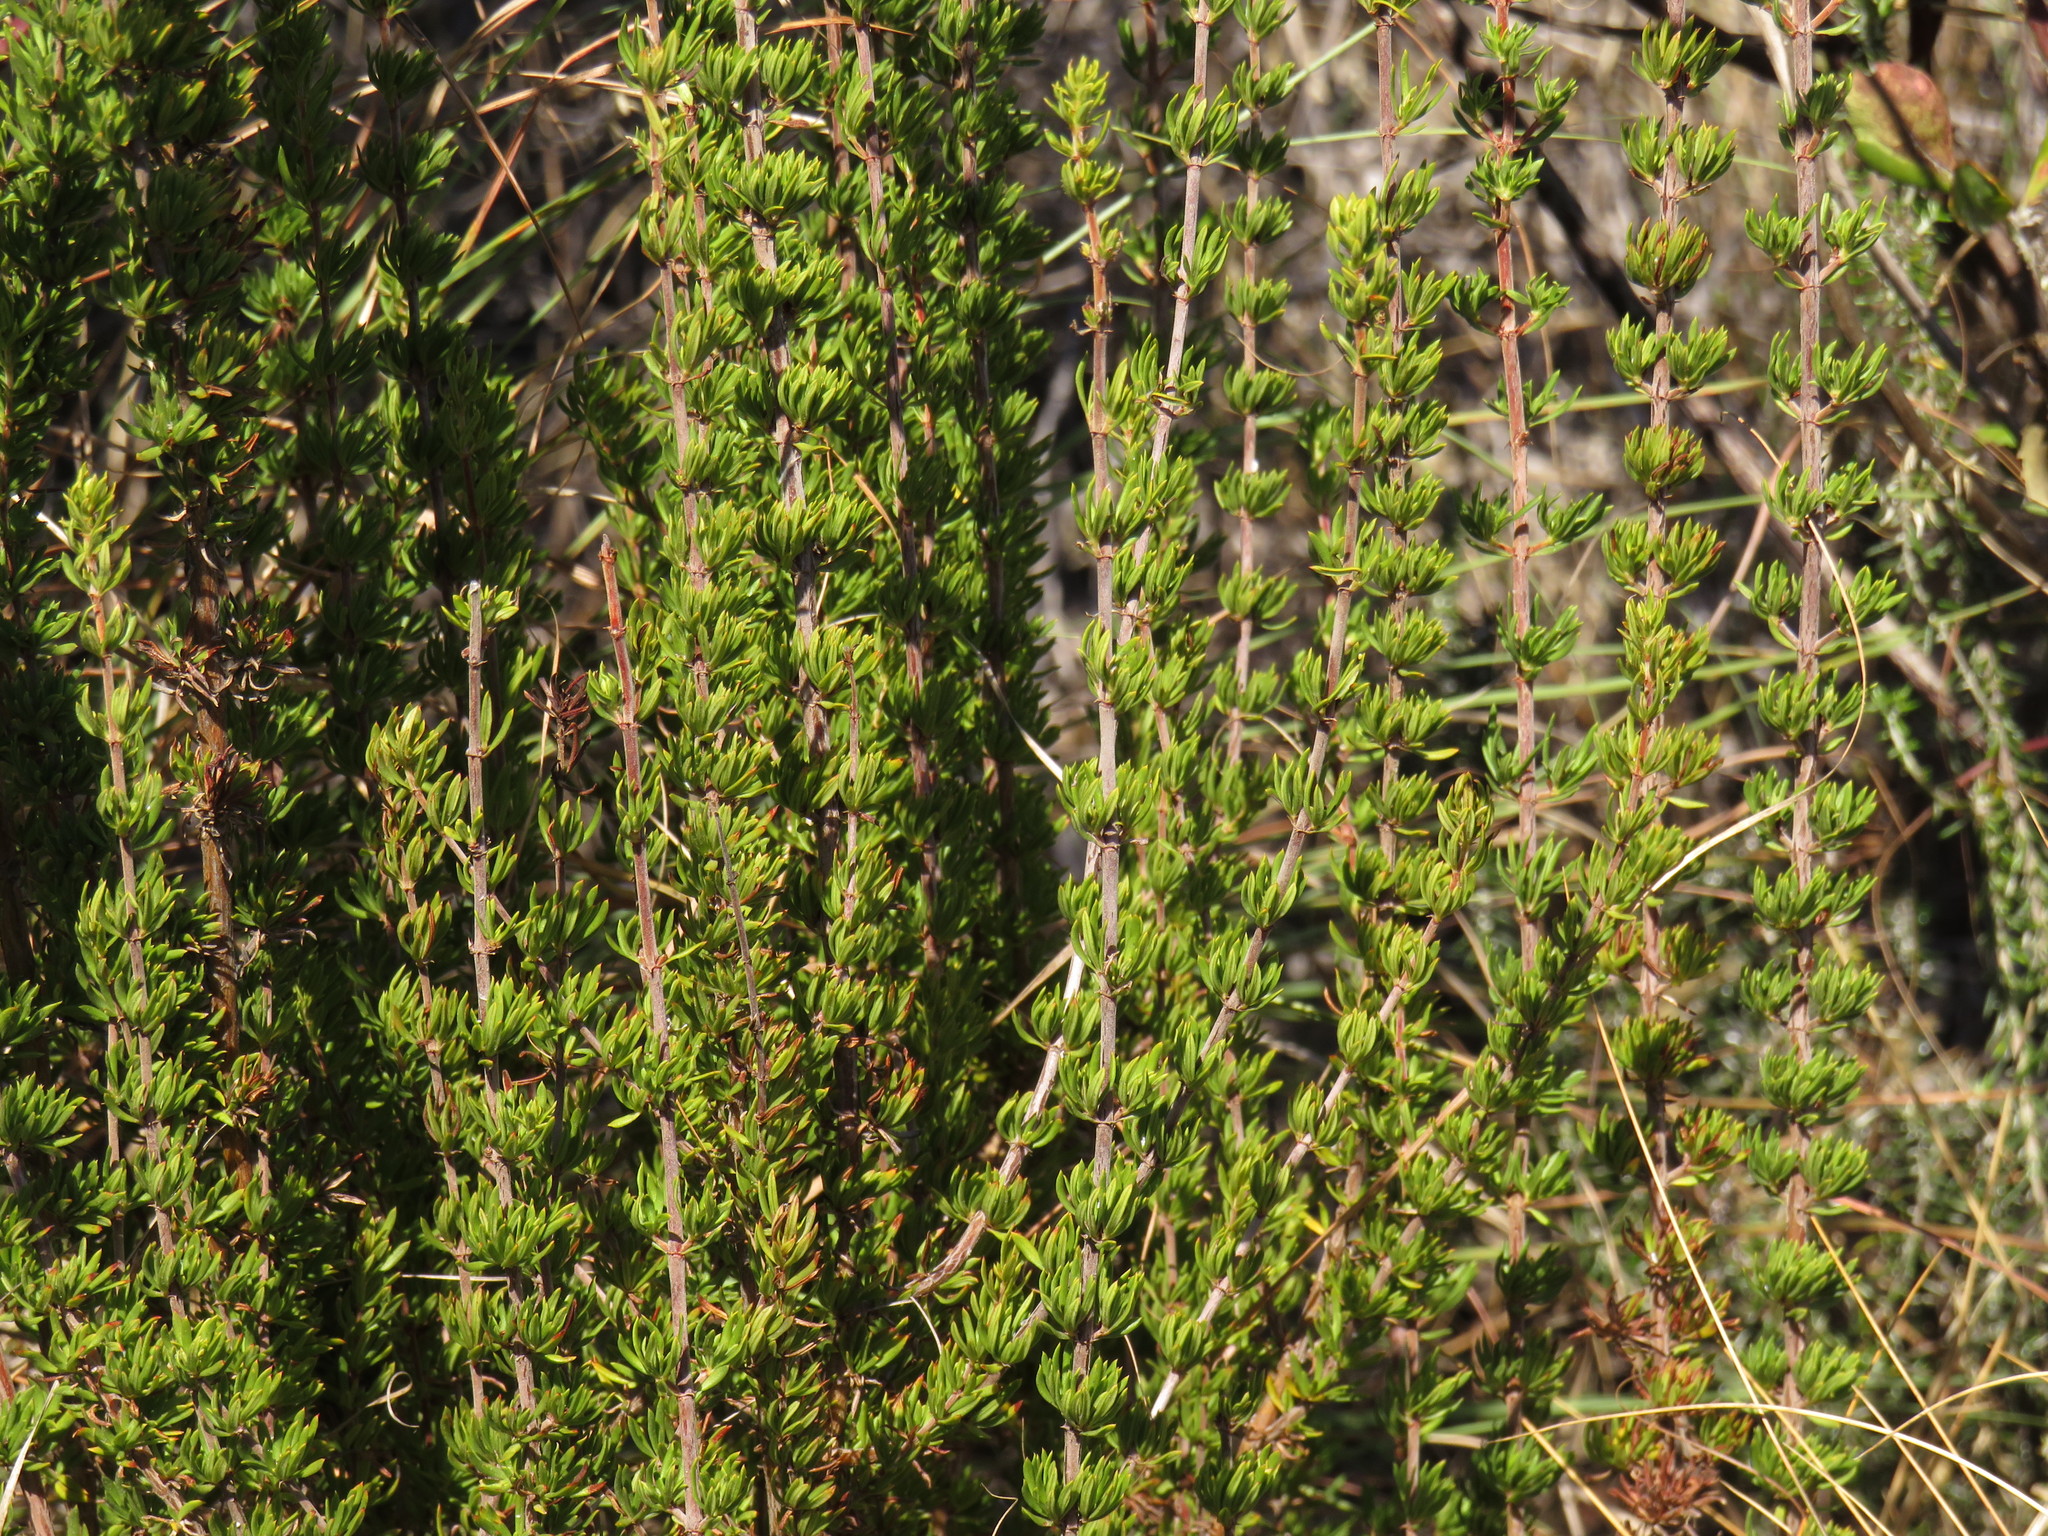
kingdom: Plantae
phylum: Tracheophyta
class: Magnoliopsida
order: Gentianales
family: Rubiaceae
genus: Anthospermum
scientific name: Anthospermum aethiopicum
